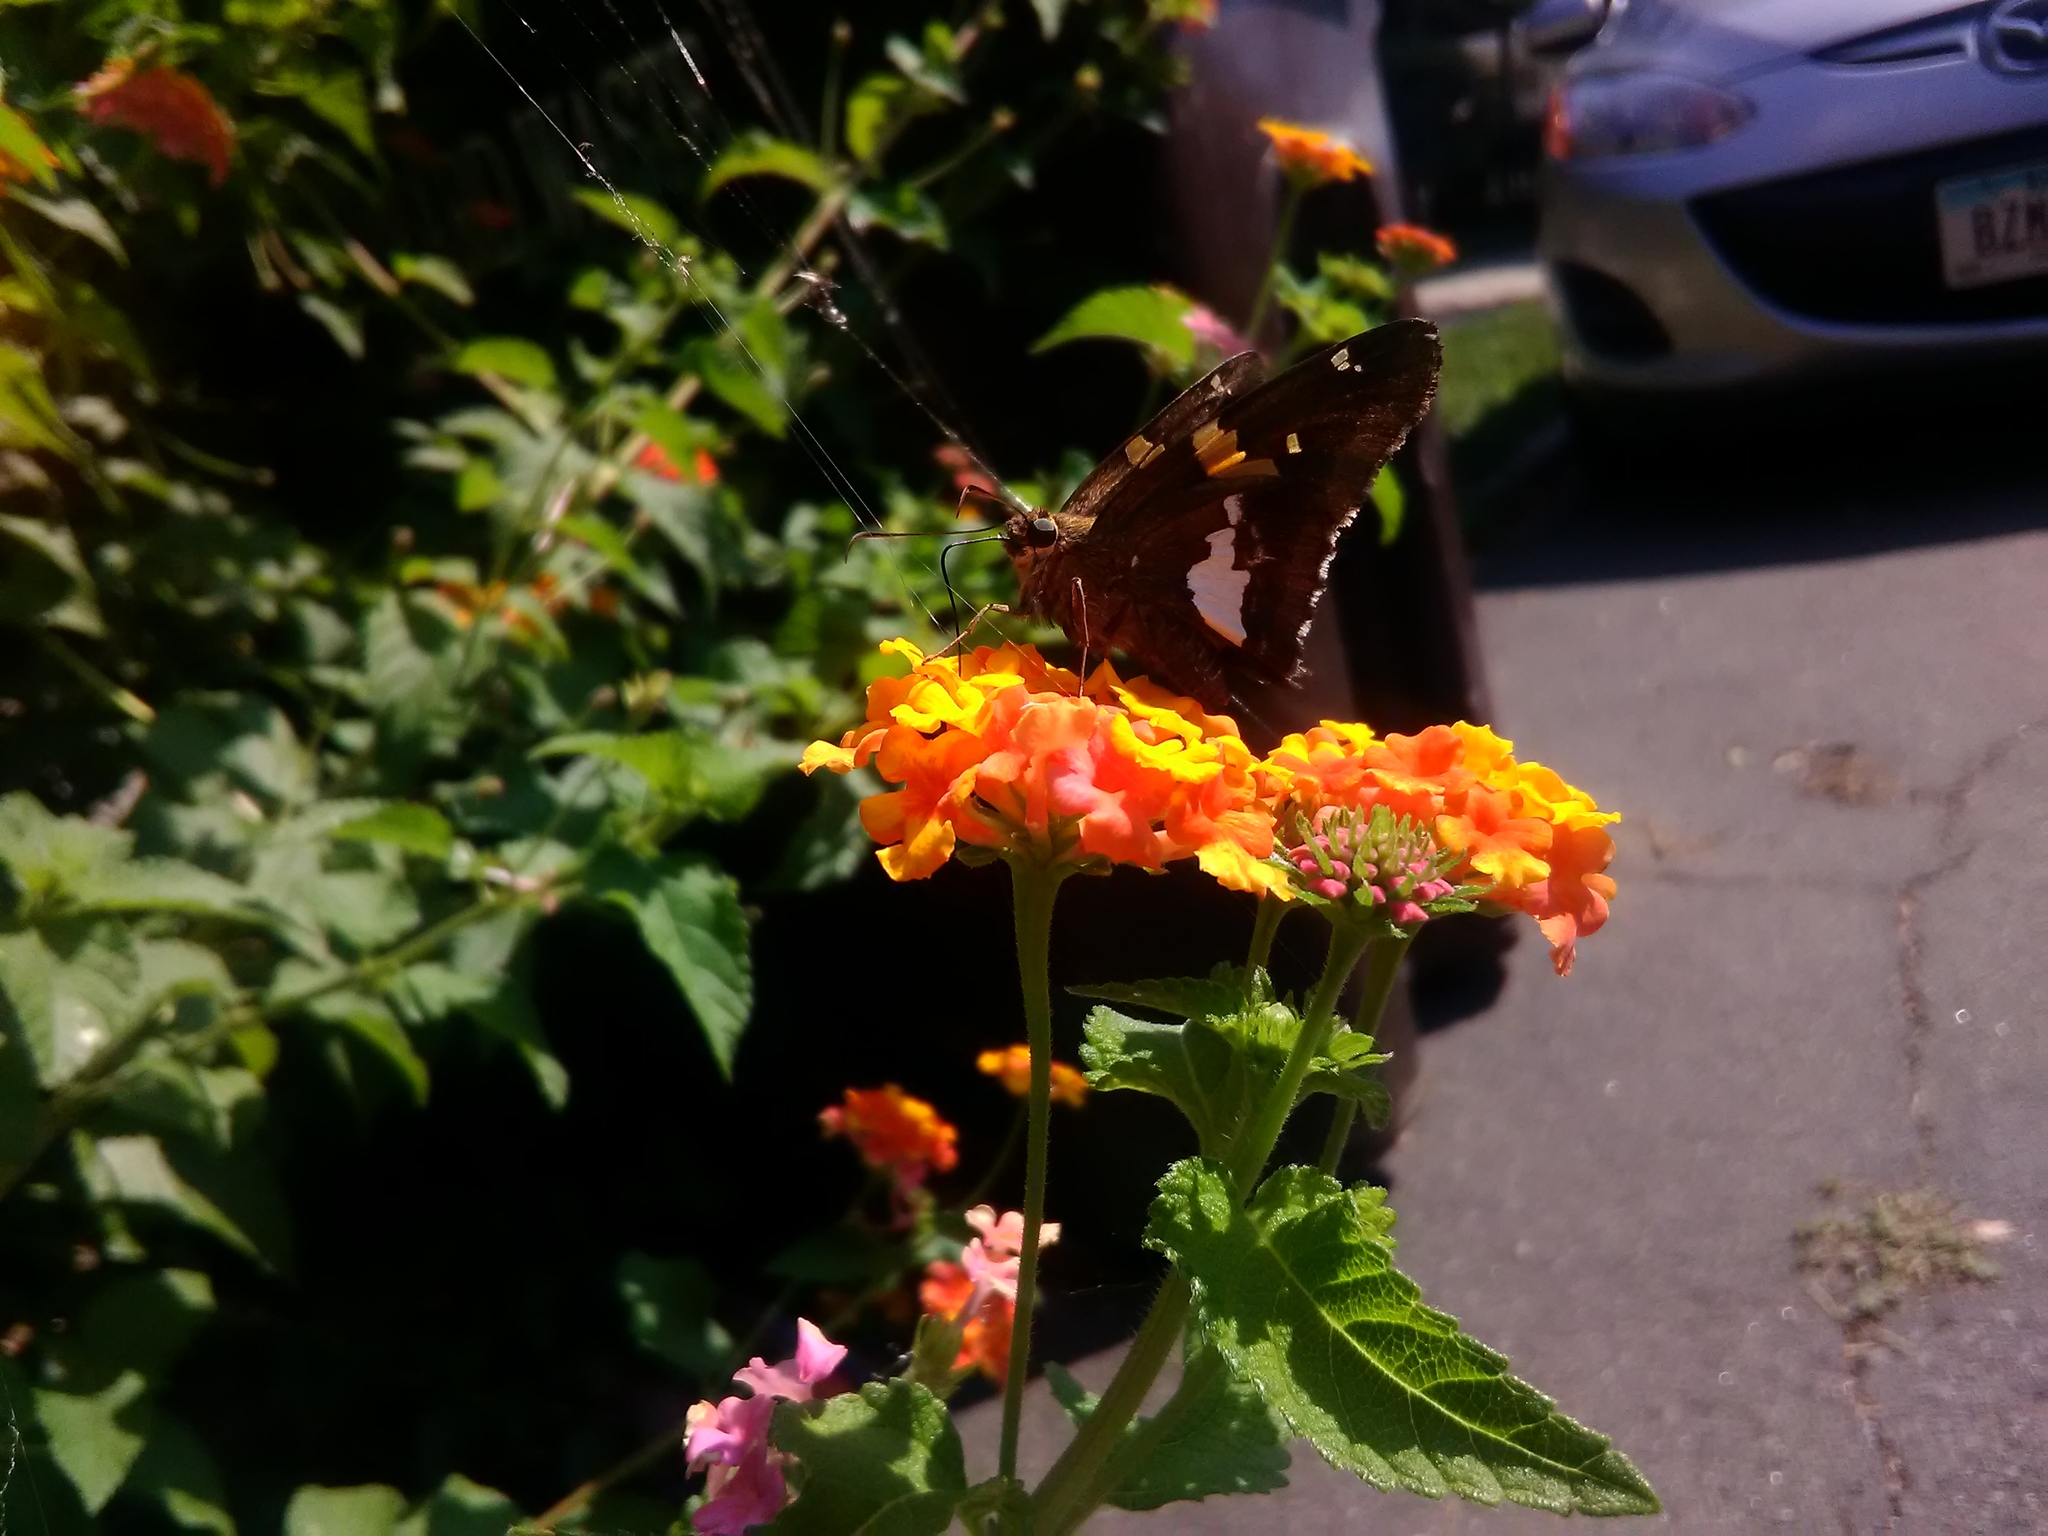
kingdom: Animalia
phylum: Arthropoda
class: Insecta
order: Lepidoptera
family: Hesperiidae
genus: Epargyreus
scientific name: Epargyreus clarus
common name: Silver-spotted skipper
